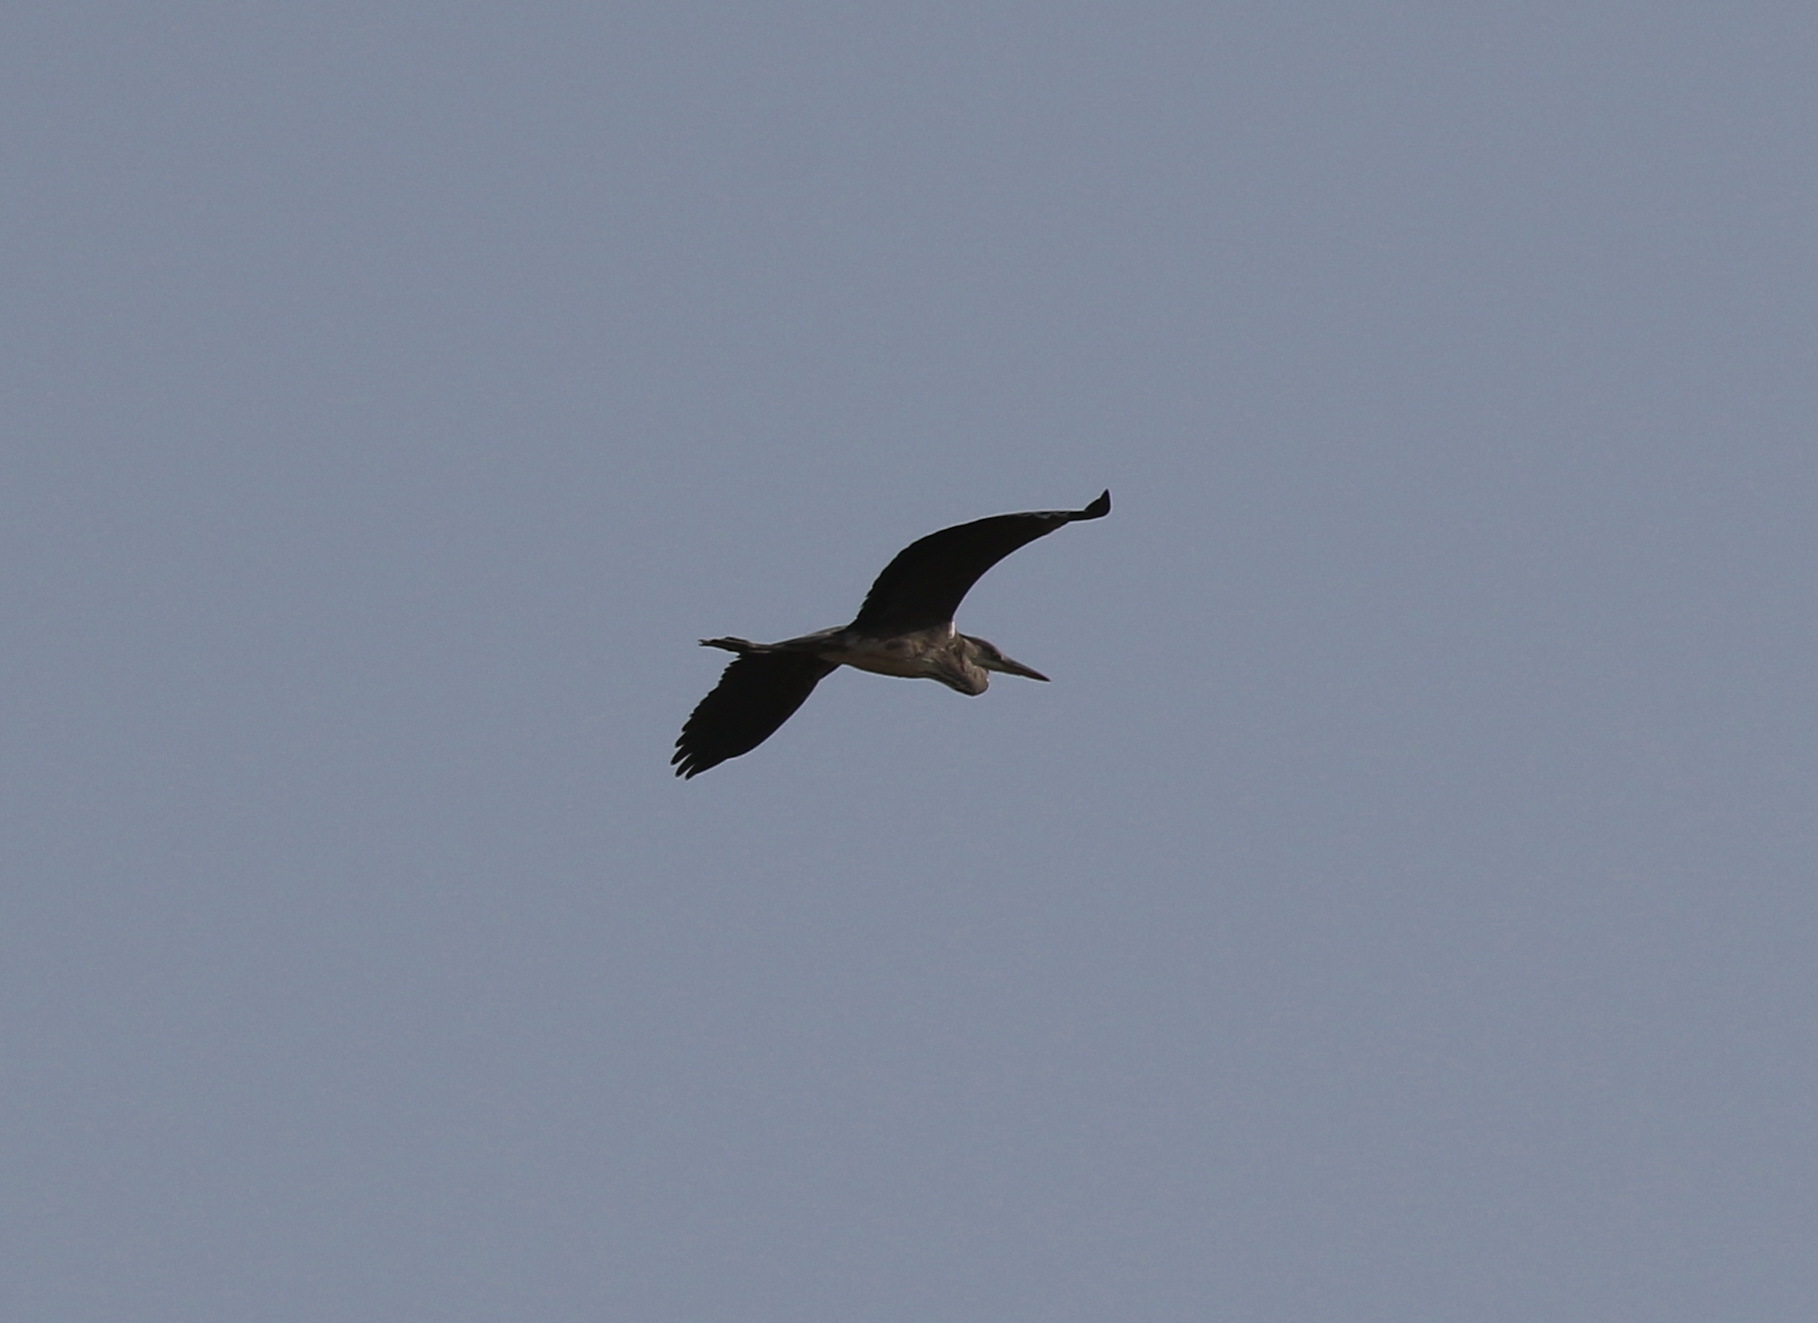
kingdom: Animalia
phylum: Chordata
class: Aves
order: Pelecaniformes
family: Ardeidae
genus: Ardea
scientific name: Ardea cinerea
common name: Grey heron
